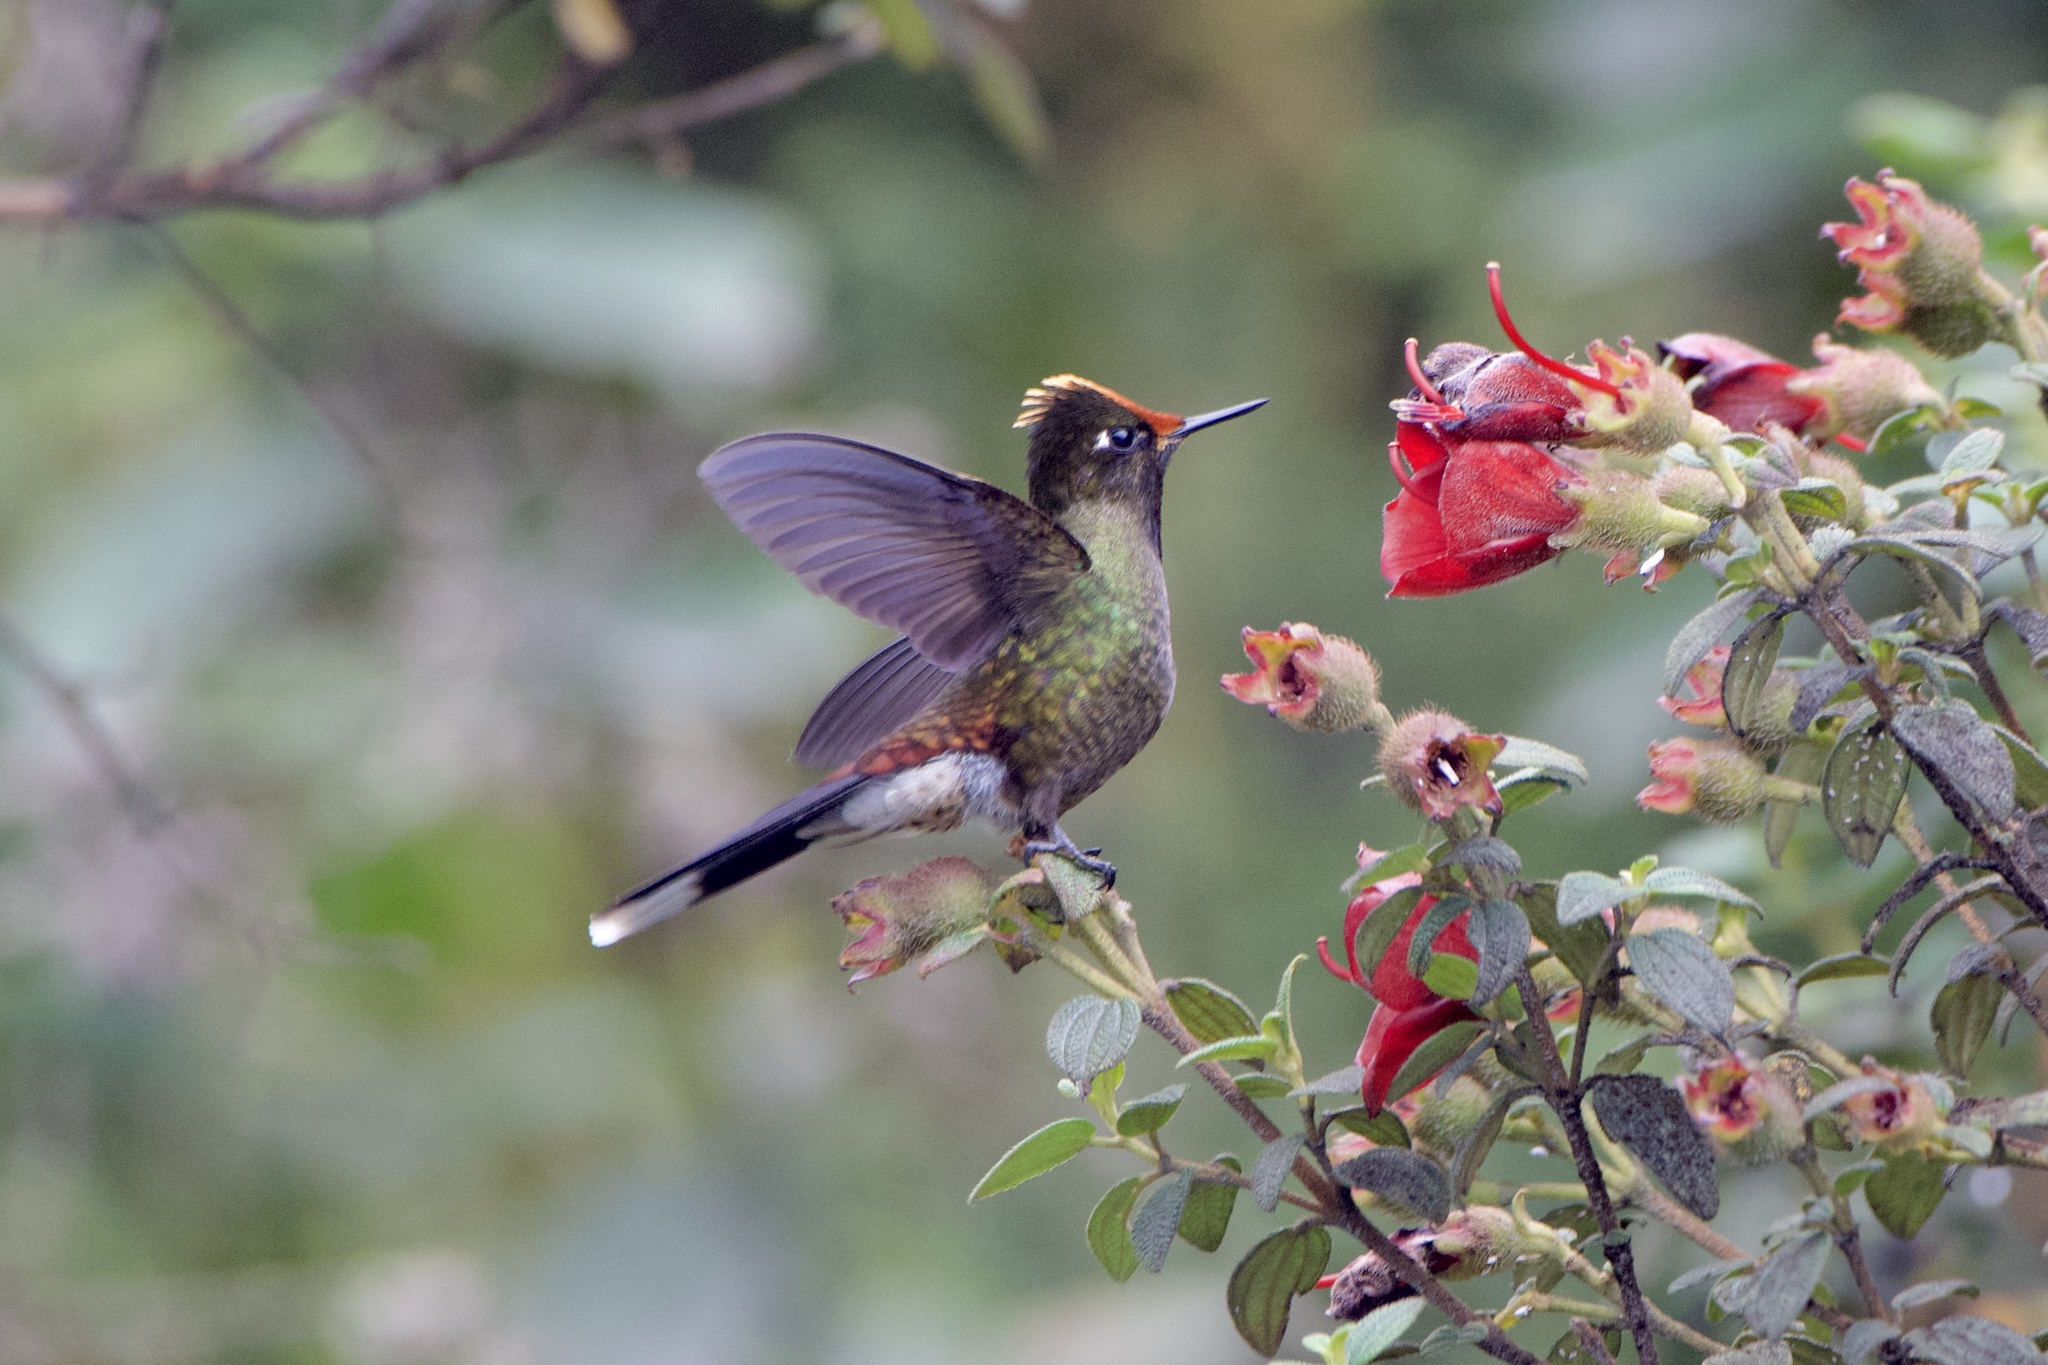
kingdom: Animalia
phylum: Chordata
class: Aves
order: Apodiformes
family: Trochilidae
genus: Chalcostigma
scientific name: Chalcostigma herrani
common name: Rainbow-bearded thornbill
